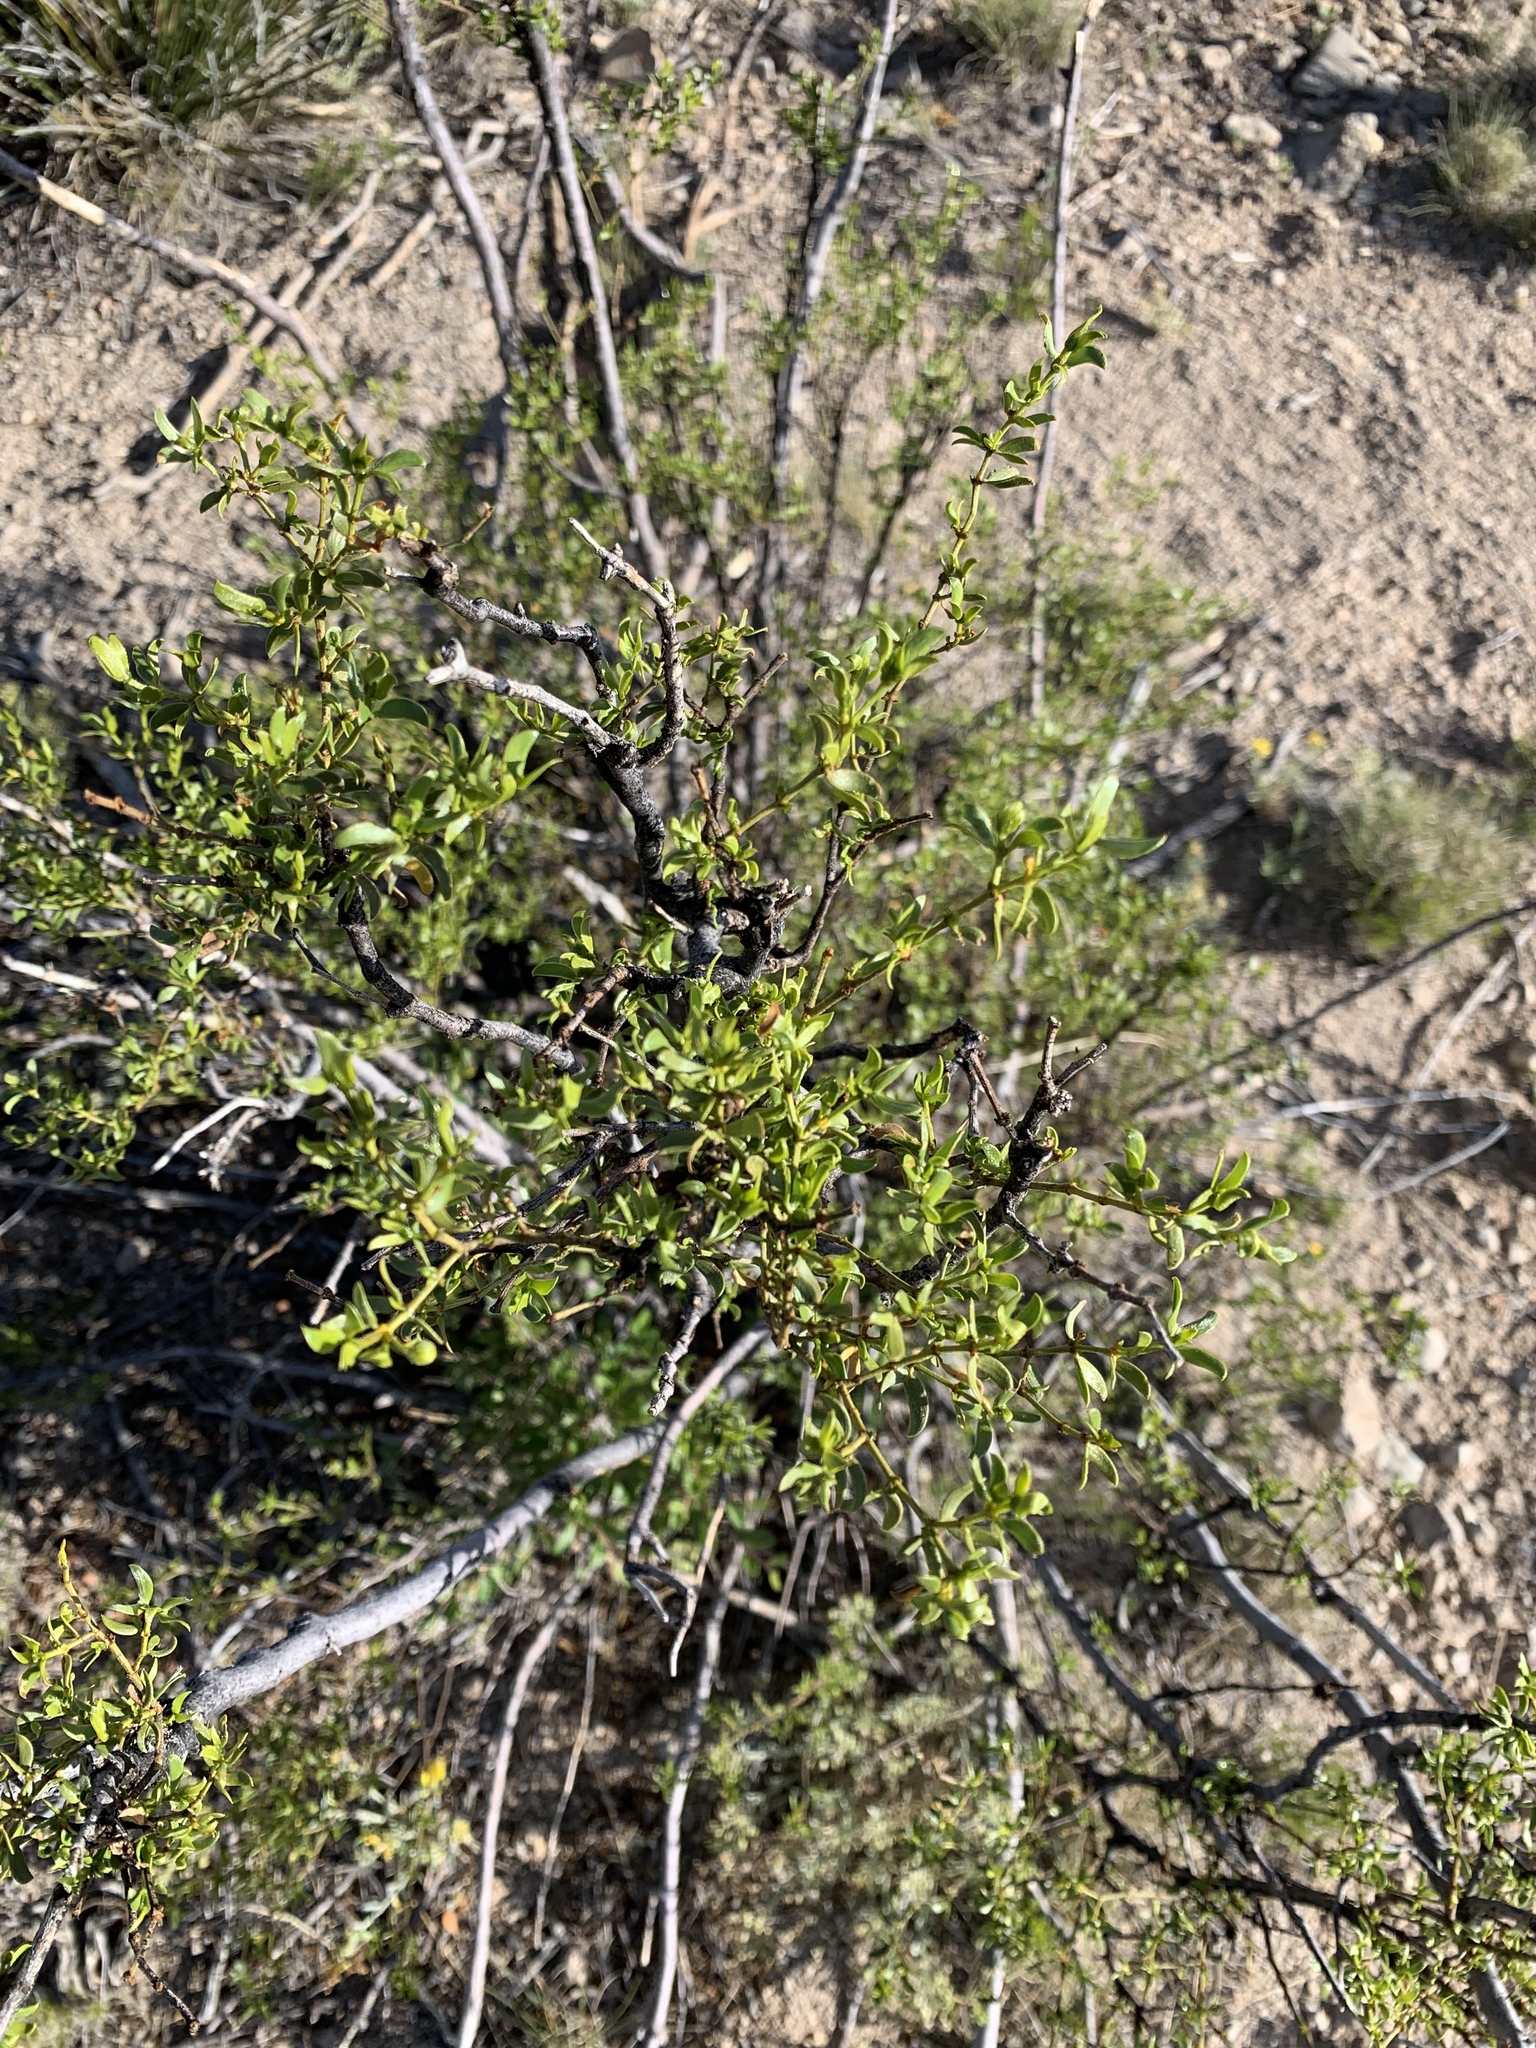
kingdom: Plantae
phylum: Tracheophyta
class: Magnoliopsida
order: Zygophyllales
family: Zygophyllaceae
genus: Larrea
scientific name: Larrea tridentata
